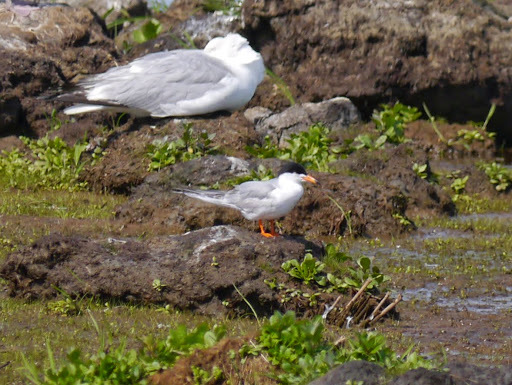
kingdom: Animalia
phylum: Chordata
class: Aves
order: Charadriiformes
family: Laridae
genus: Sterna
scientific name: Sterna forsteri
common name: Forster's tern
